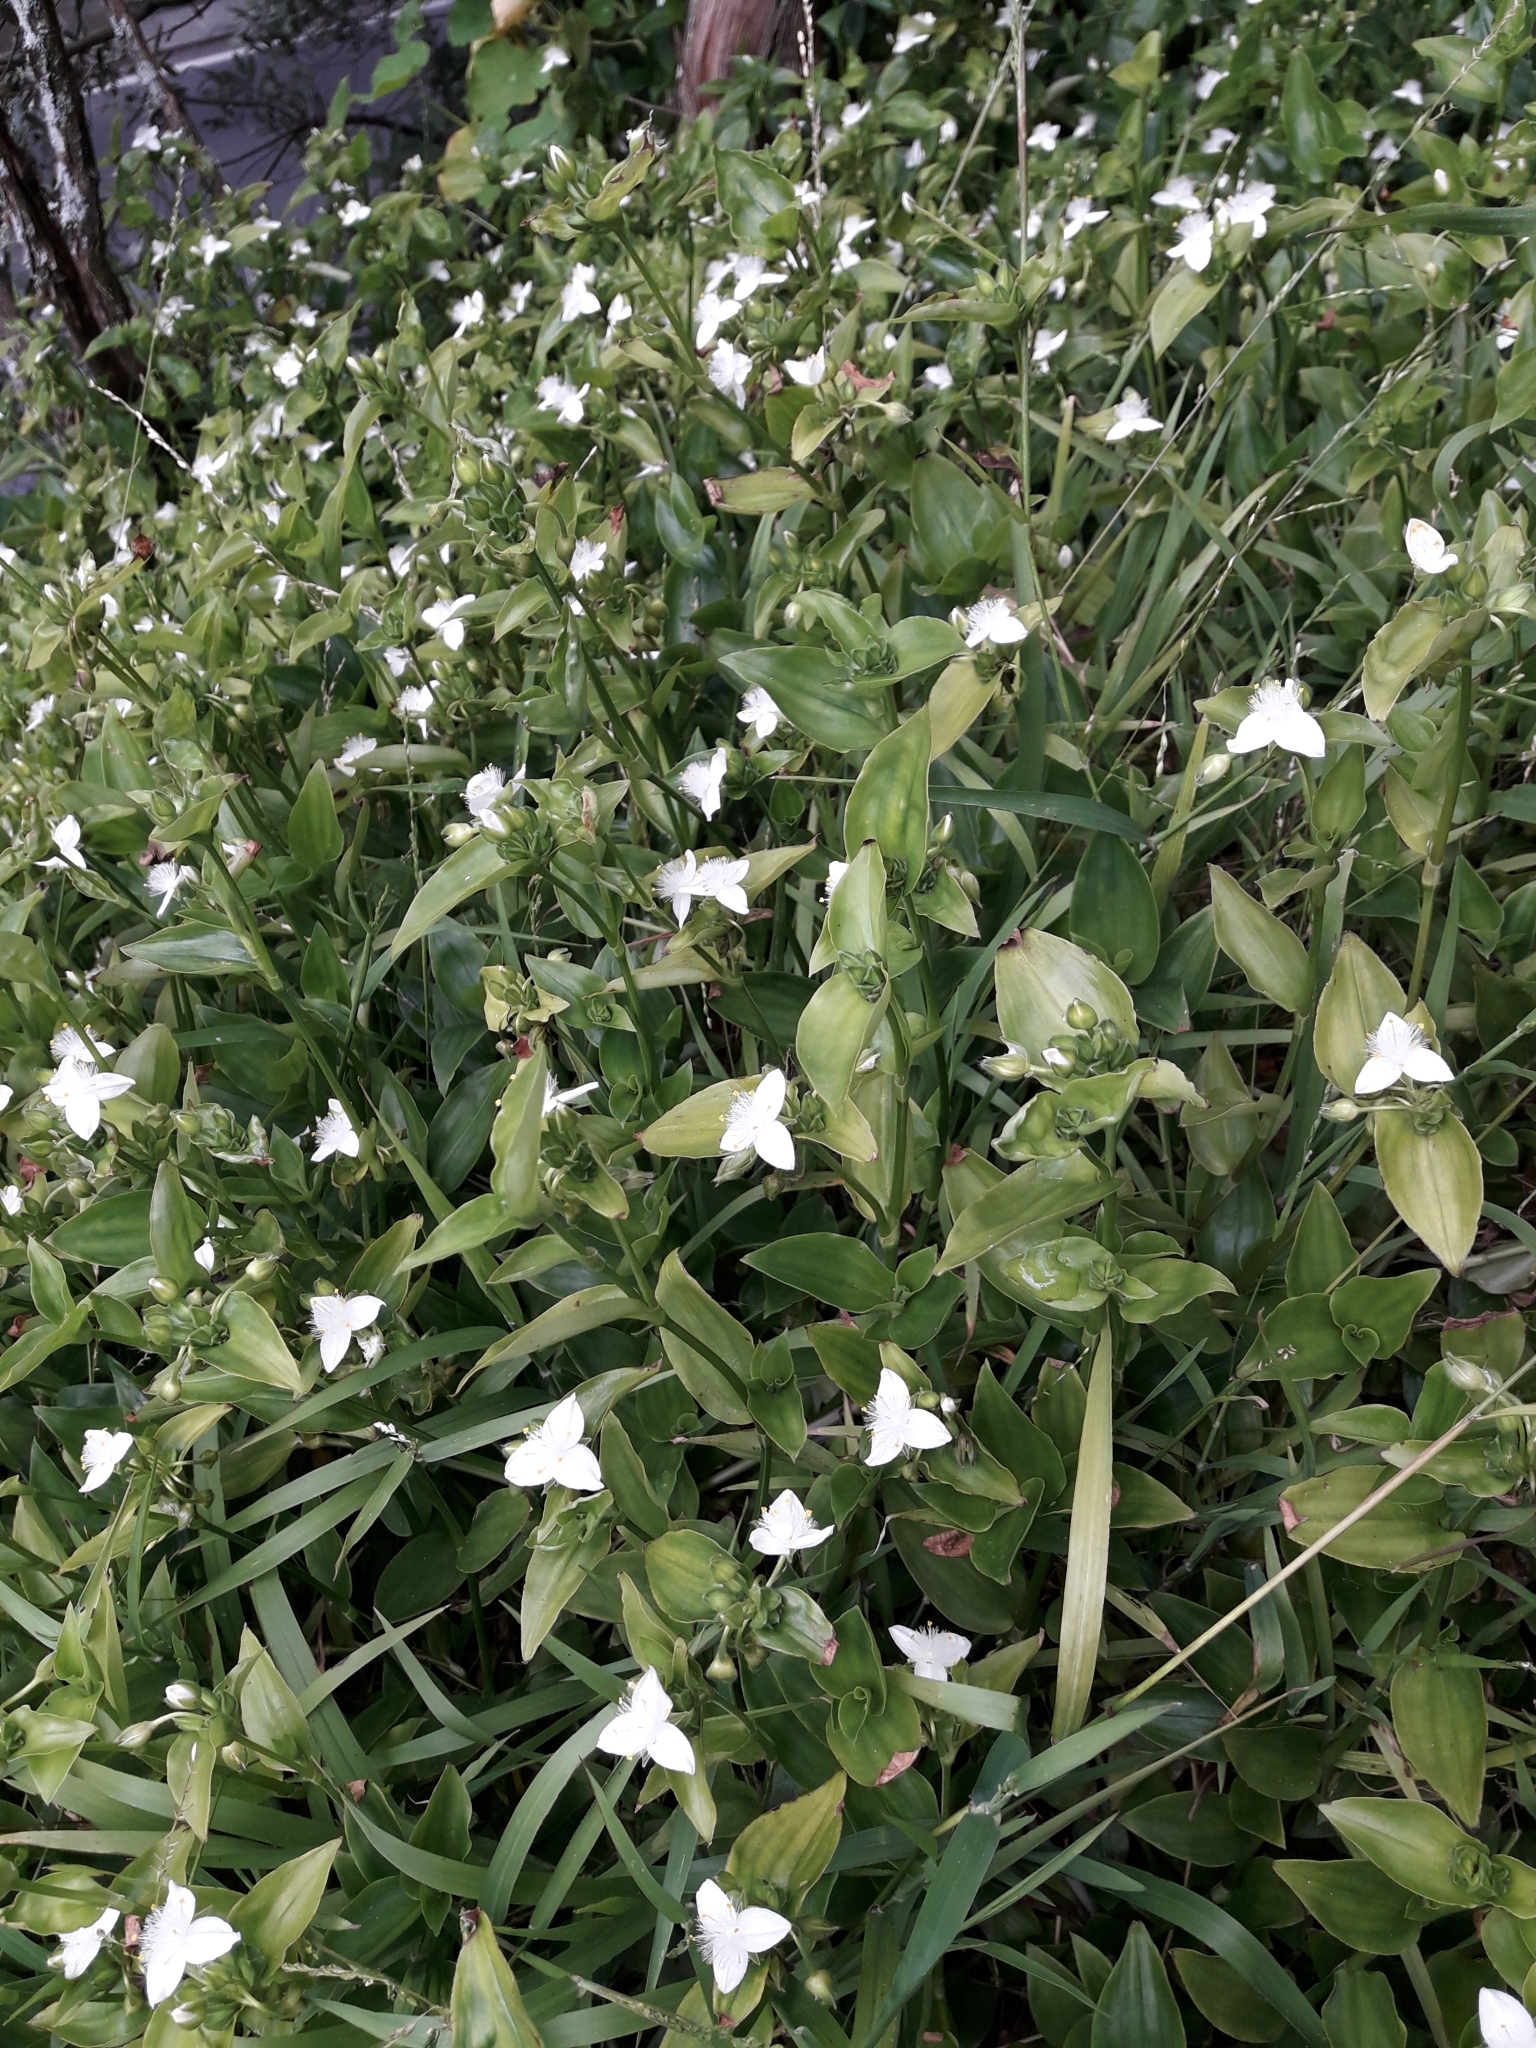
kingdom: Plantae
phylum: Tracheophyta
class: Liliopsida
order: Commelinales
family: Commelinaceae
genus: Tradescantia
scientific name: Tradescantia fluminensis
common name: Wandering-jew
